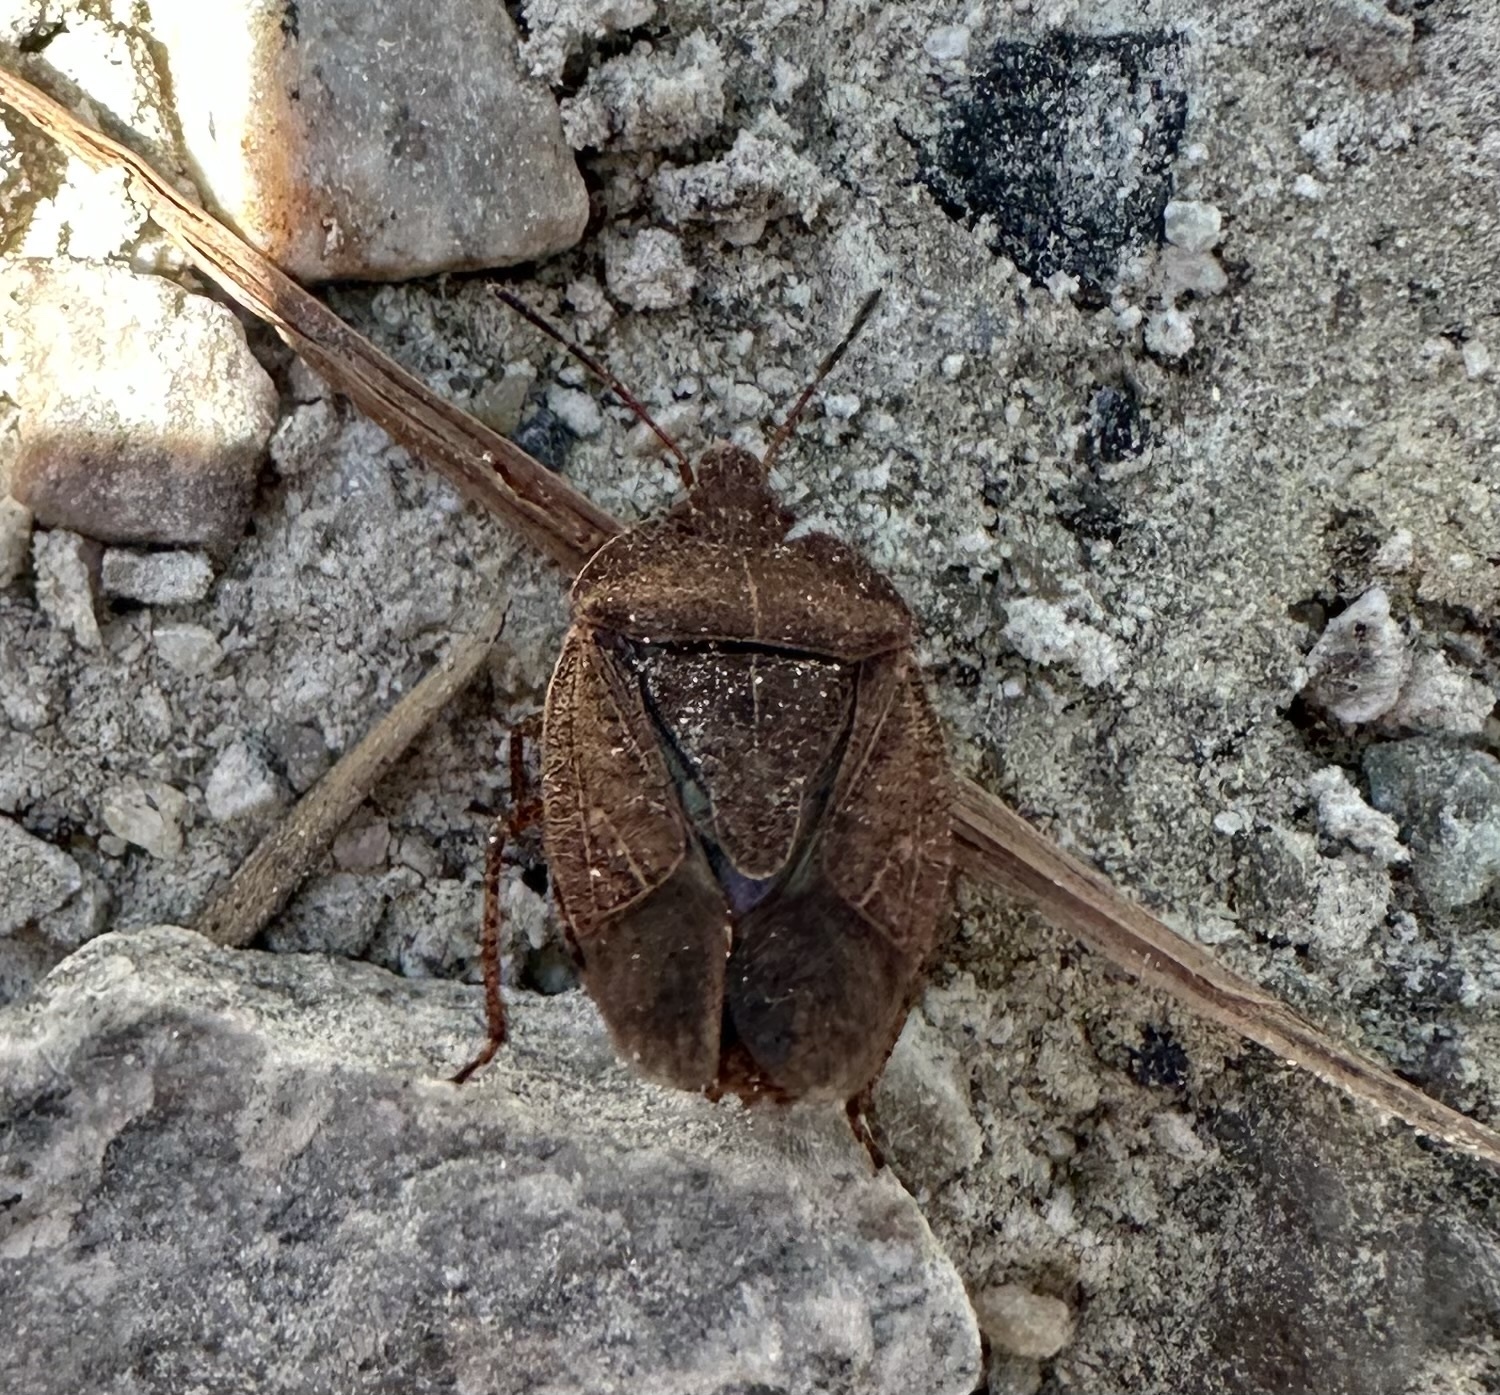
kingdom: Animalia
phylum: Arthropoda
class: Insecta
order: Hemiptera
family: Pentatomidae
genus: Menecles
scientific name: Menecles insertus
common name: Elf shoe stink bug
